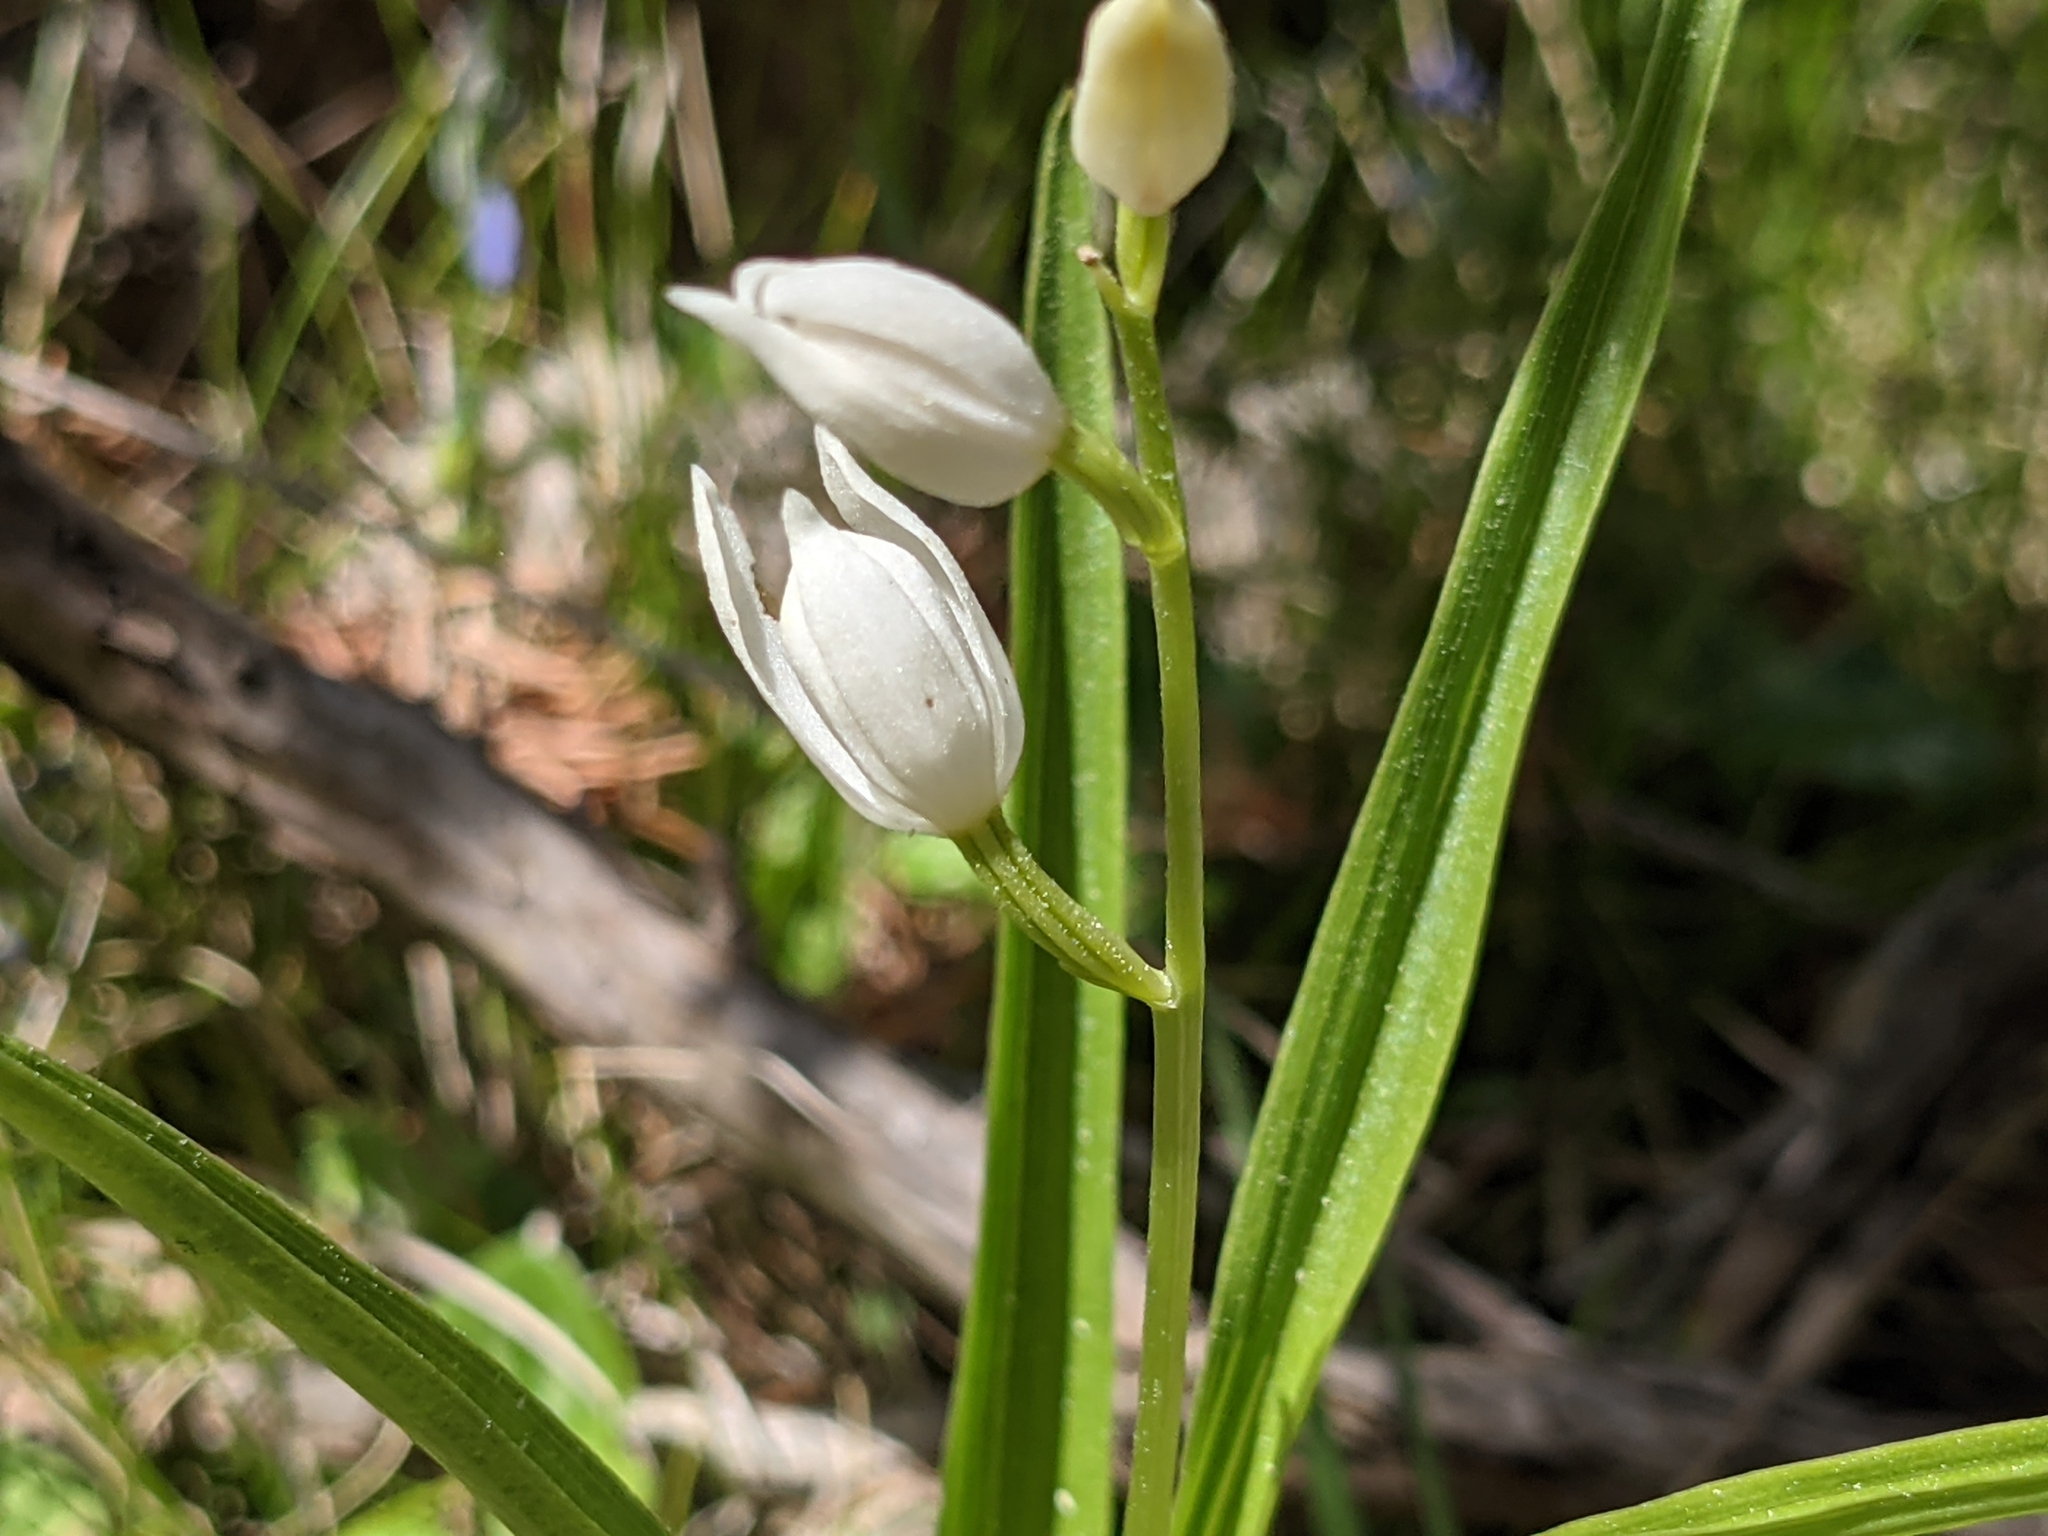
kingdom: Plantae
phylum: Tracheophyta
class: Liliopsida
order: Asparagales
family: Orchidaceae
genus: Cephalanthera
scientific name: Cephalanthera longifolia
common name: Narrow-leaved helleborine
